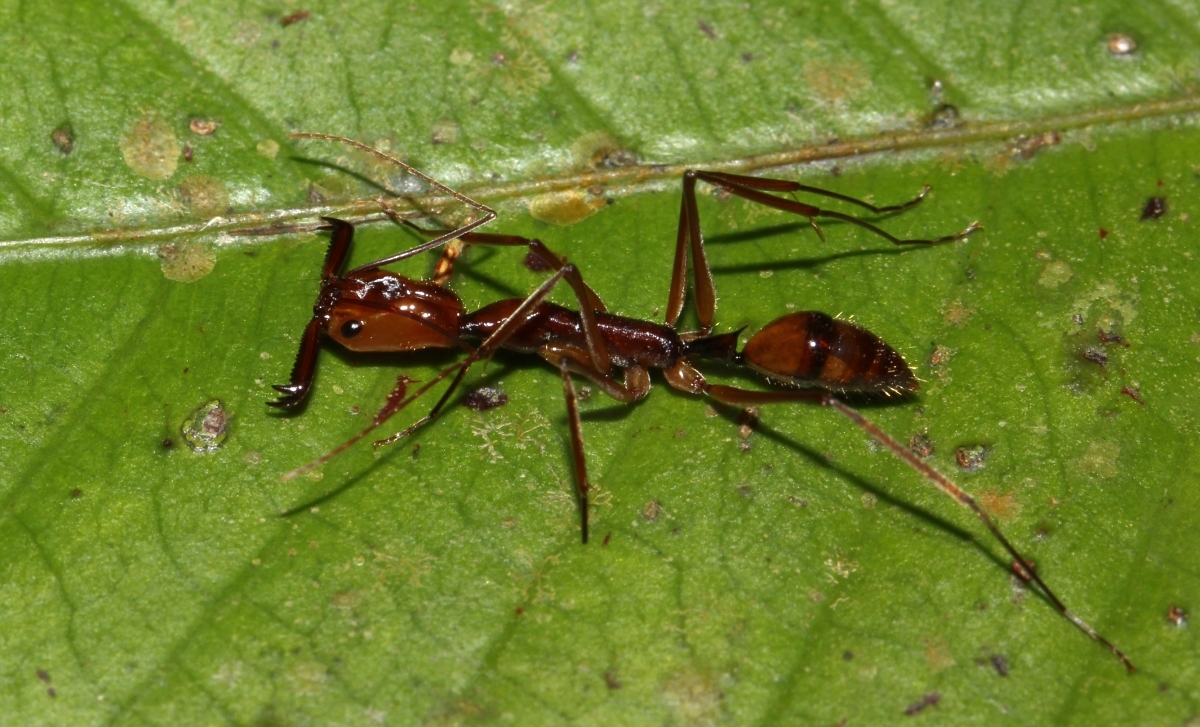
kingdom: Animalia
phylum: Arthropoda
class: Insecta
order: Hymenoptera
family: Formicidae
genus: Odontomachus
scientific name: Odontomachus hastatus
